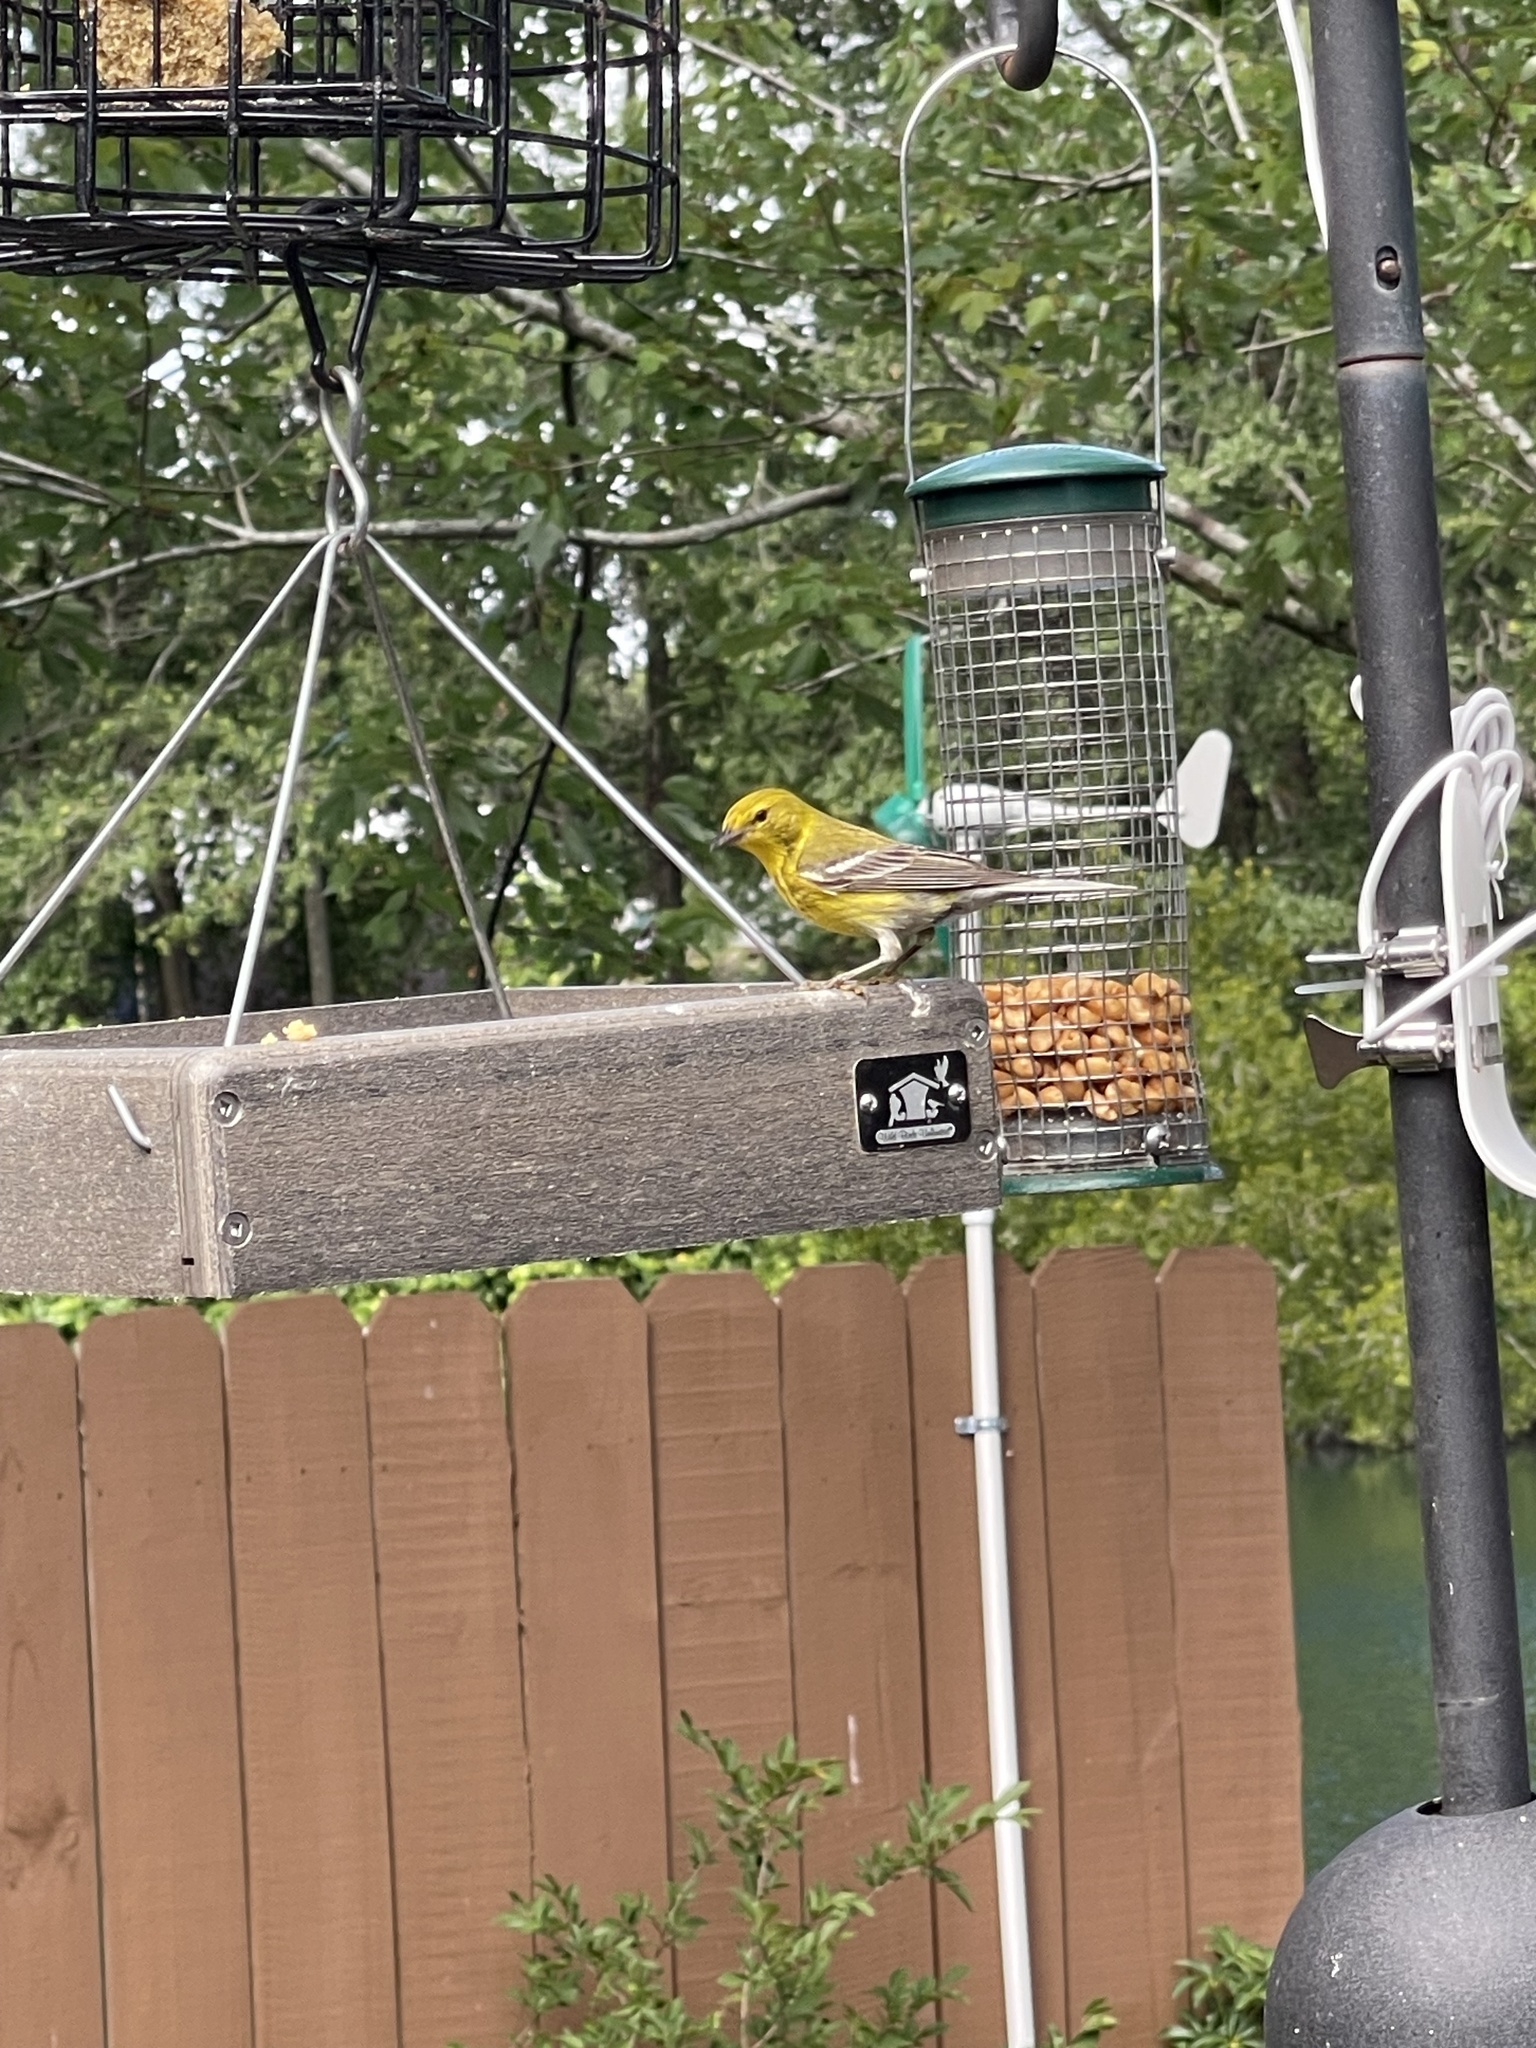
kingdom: Animalia
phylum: Chordata
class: Aves
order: Passeriformes
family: Parulidae
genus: Setophaga
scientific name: Setophaga pinus
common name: Pine warbler
